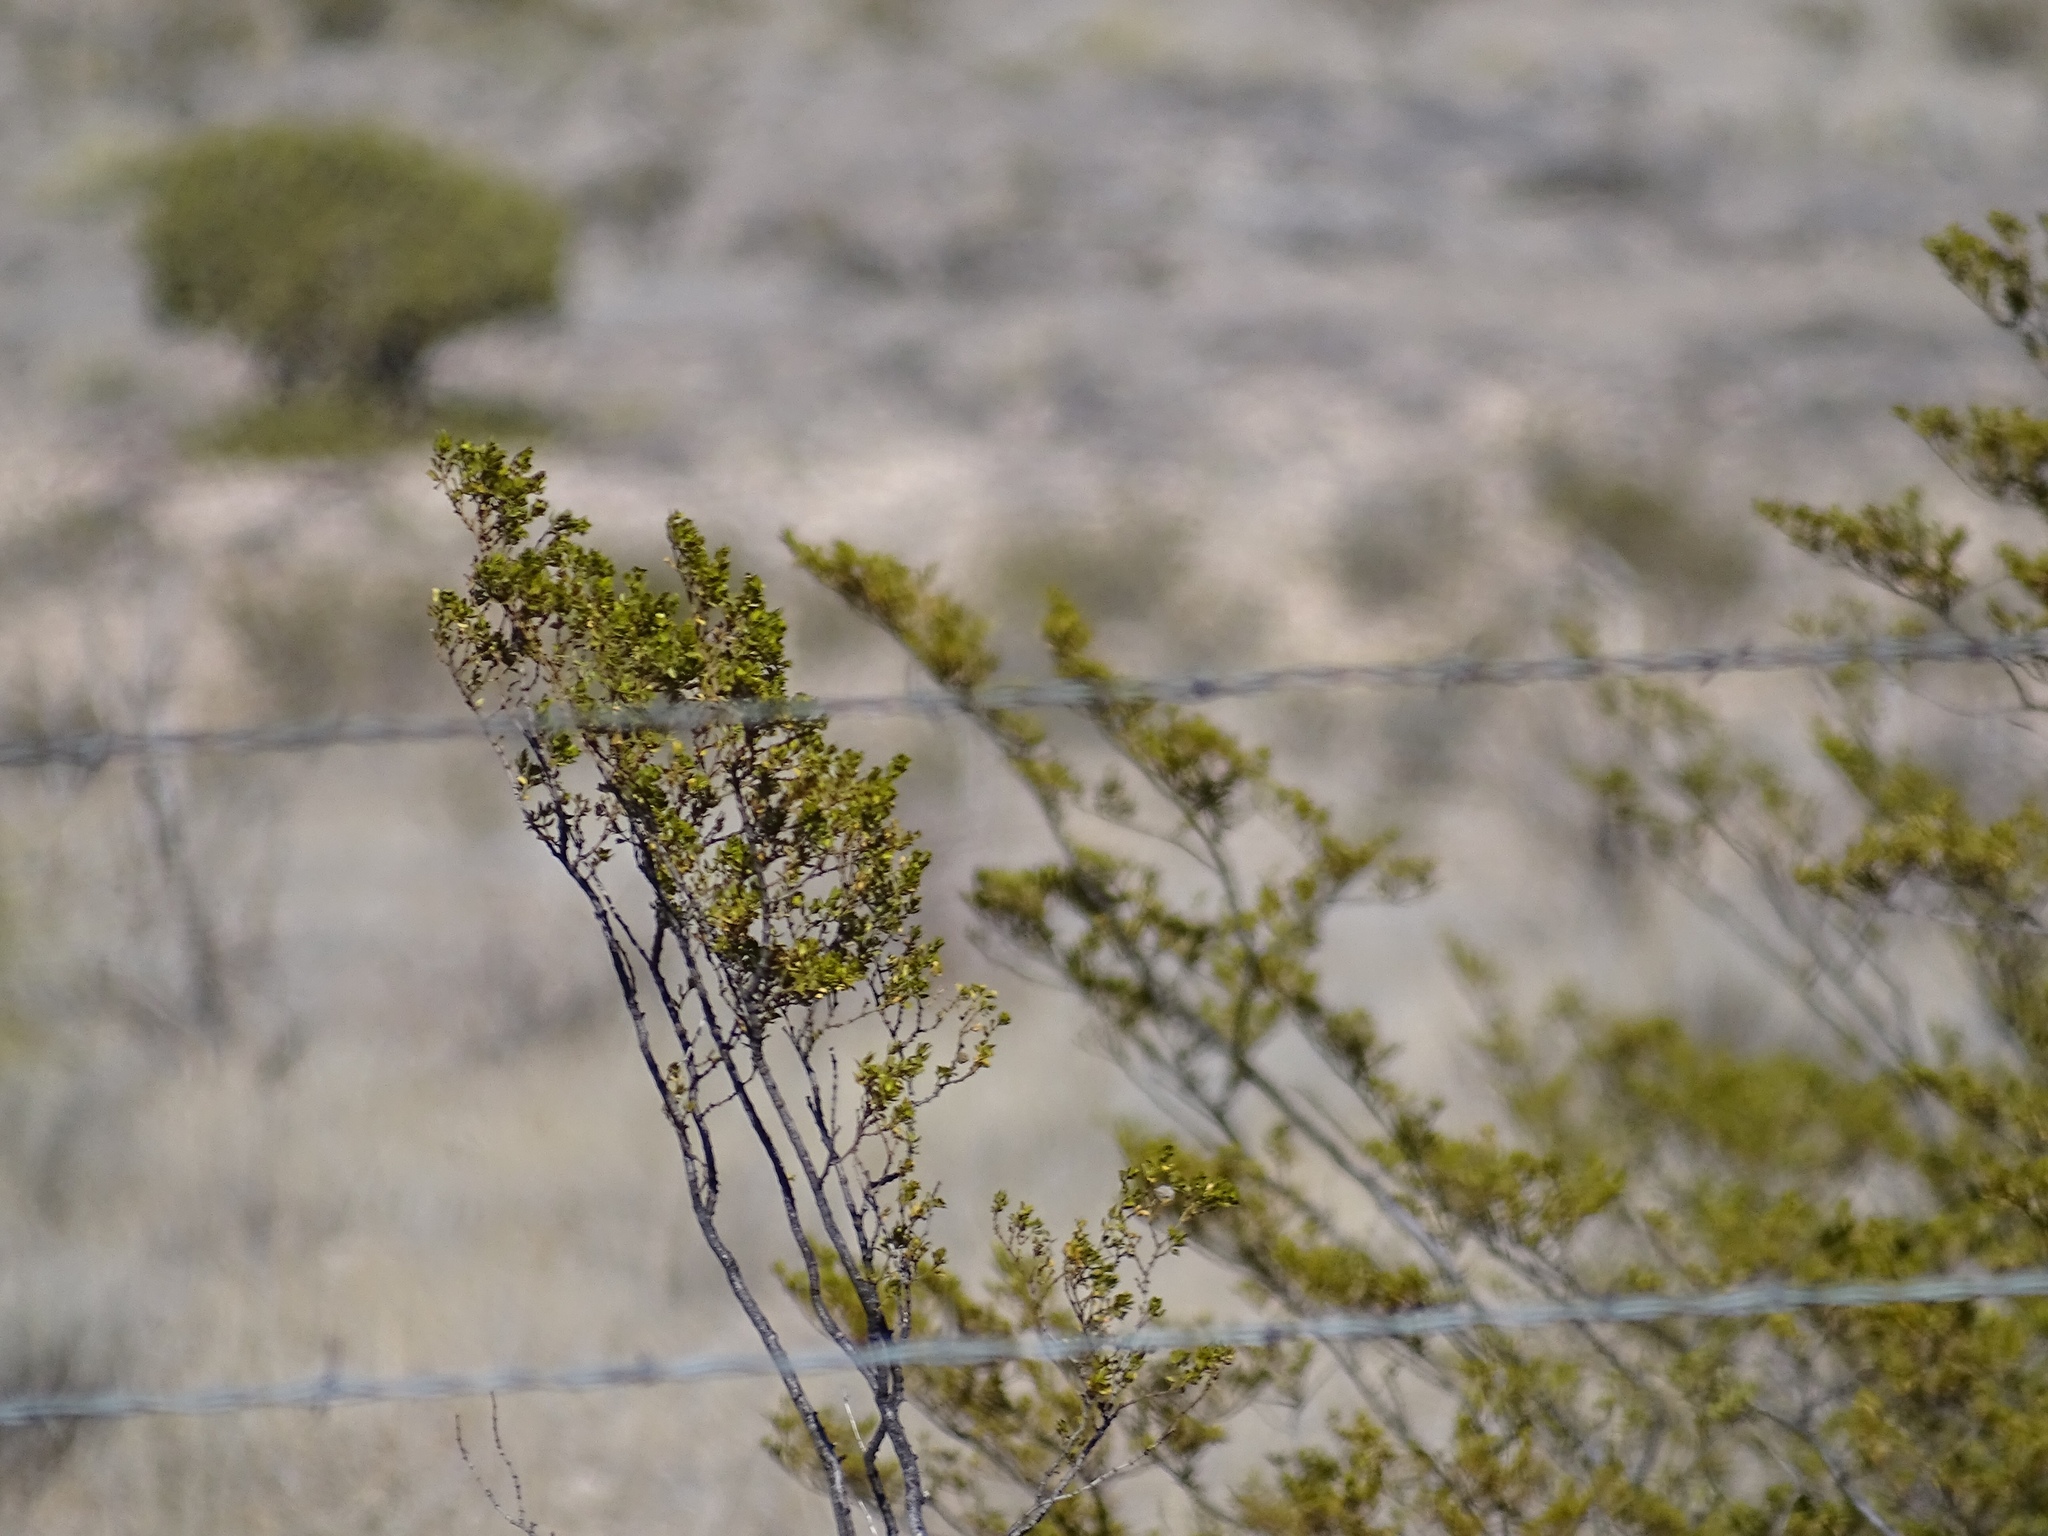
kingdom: Plantae
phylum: Tracheophyta
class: Magnoliopsida
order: Zygophyllales
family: Zygophyllaceae
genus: Larrea
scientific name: Larrea tridentata
